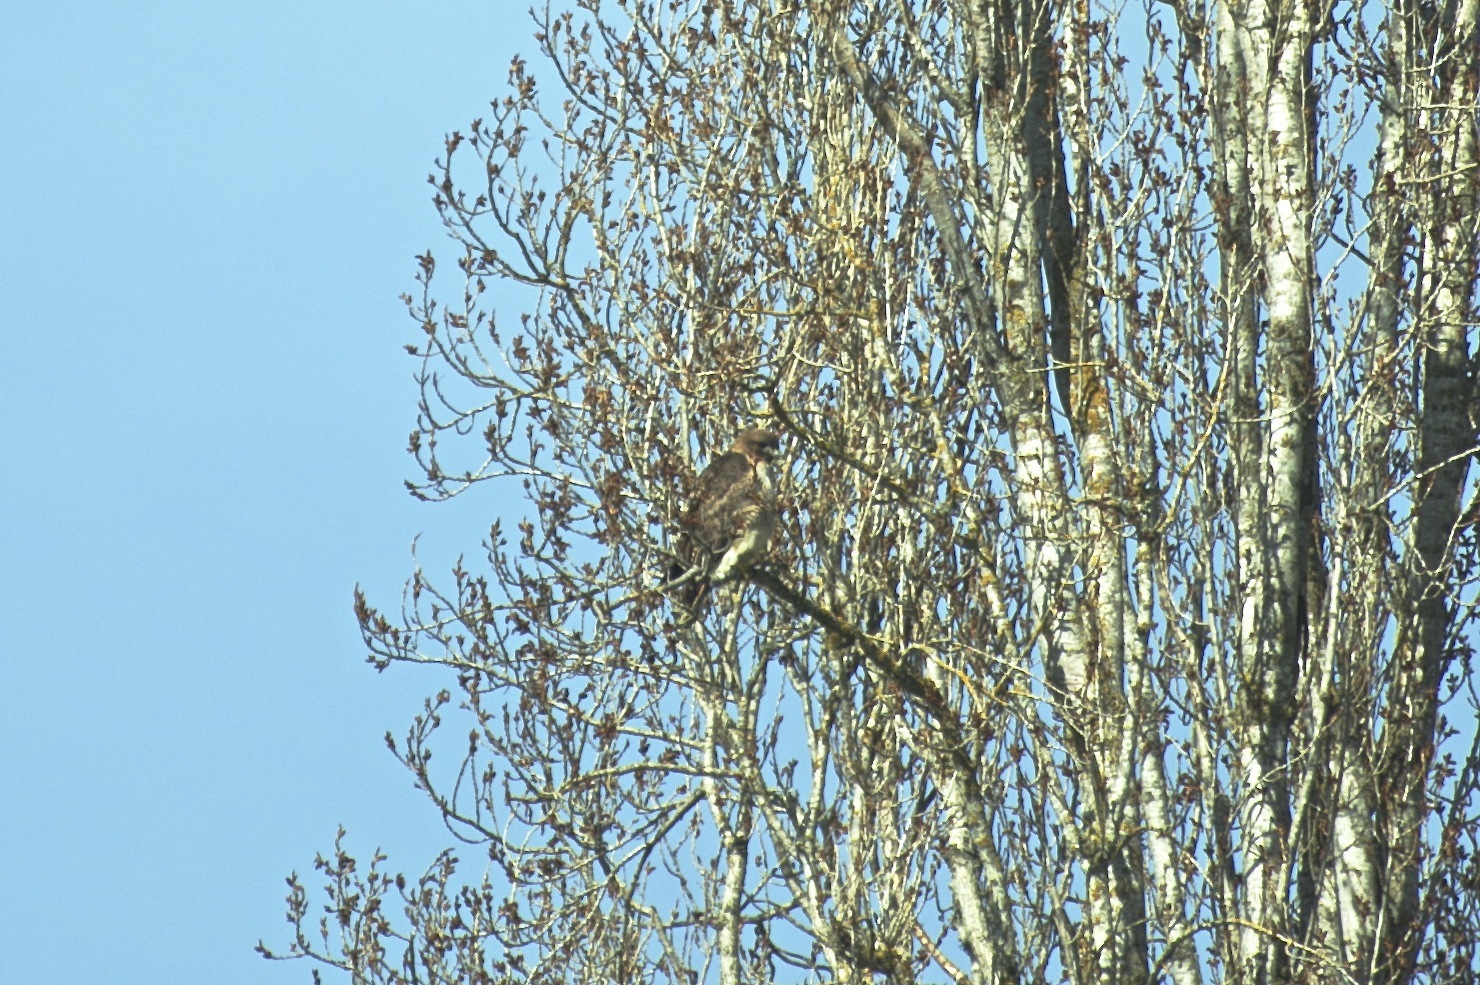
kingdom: Animalia
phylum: Chordata
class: Aves
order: Accipitriformes
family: Accipitridae
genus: Buteo
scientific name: Buteo jamaicensis
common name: Red-tailed hawk
